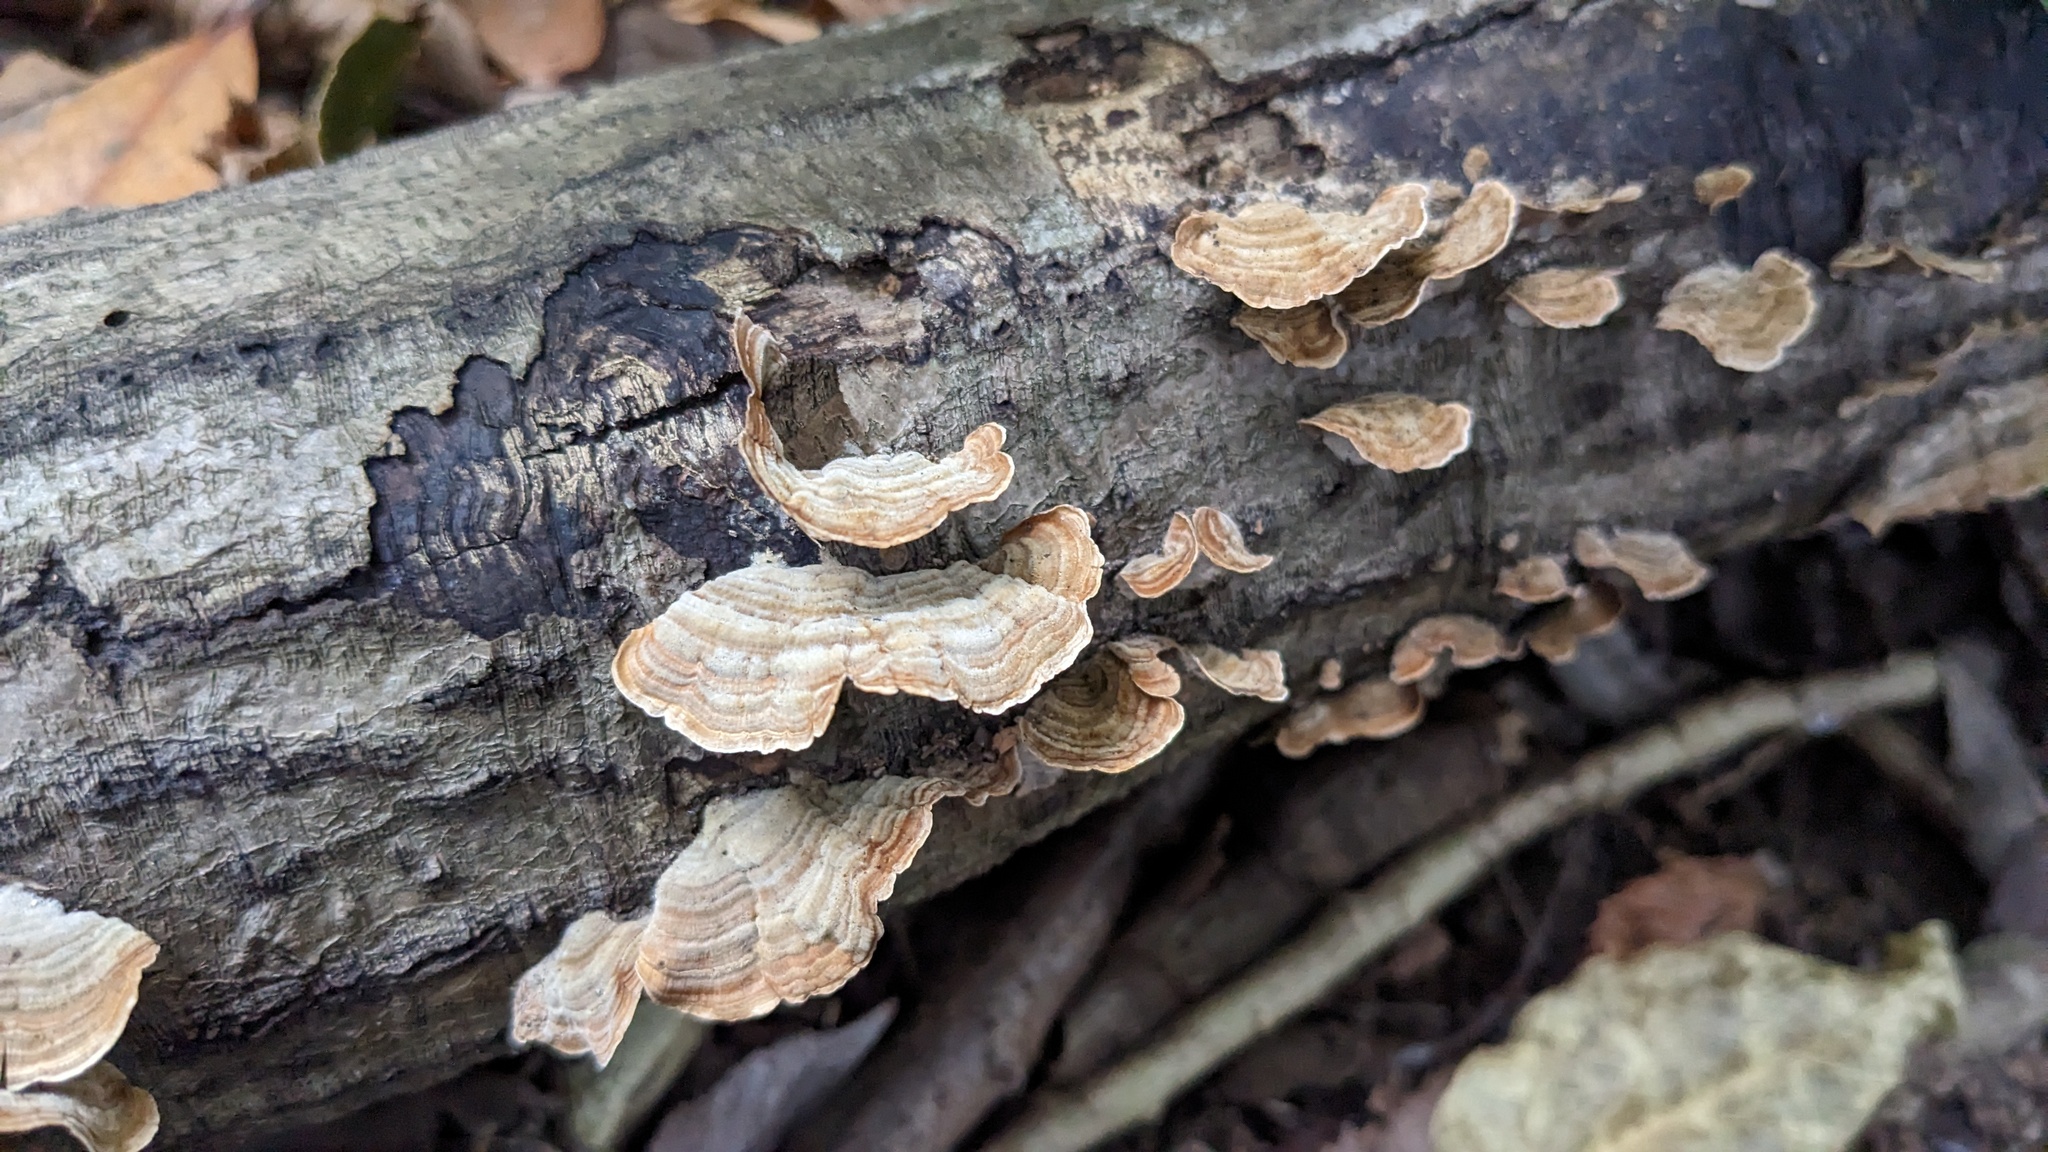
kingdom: Fungi
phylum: Basidiomycota
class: Agaricomycetes
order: Russulales
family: Stereaceae
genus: Stereum
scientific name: Stereum ostrea
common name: False turkeytail
